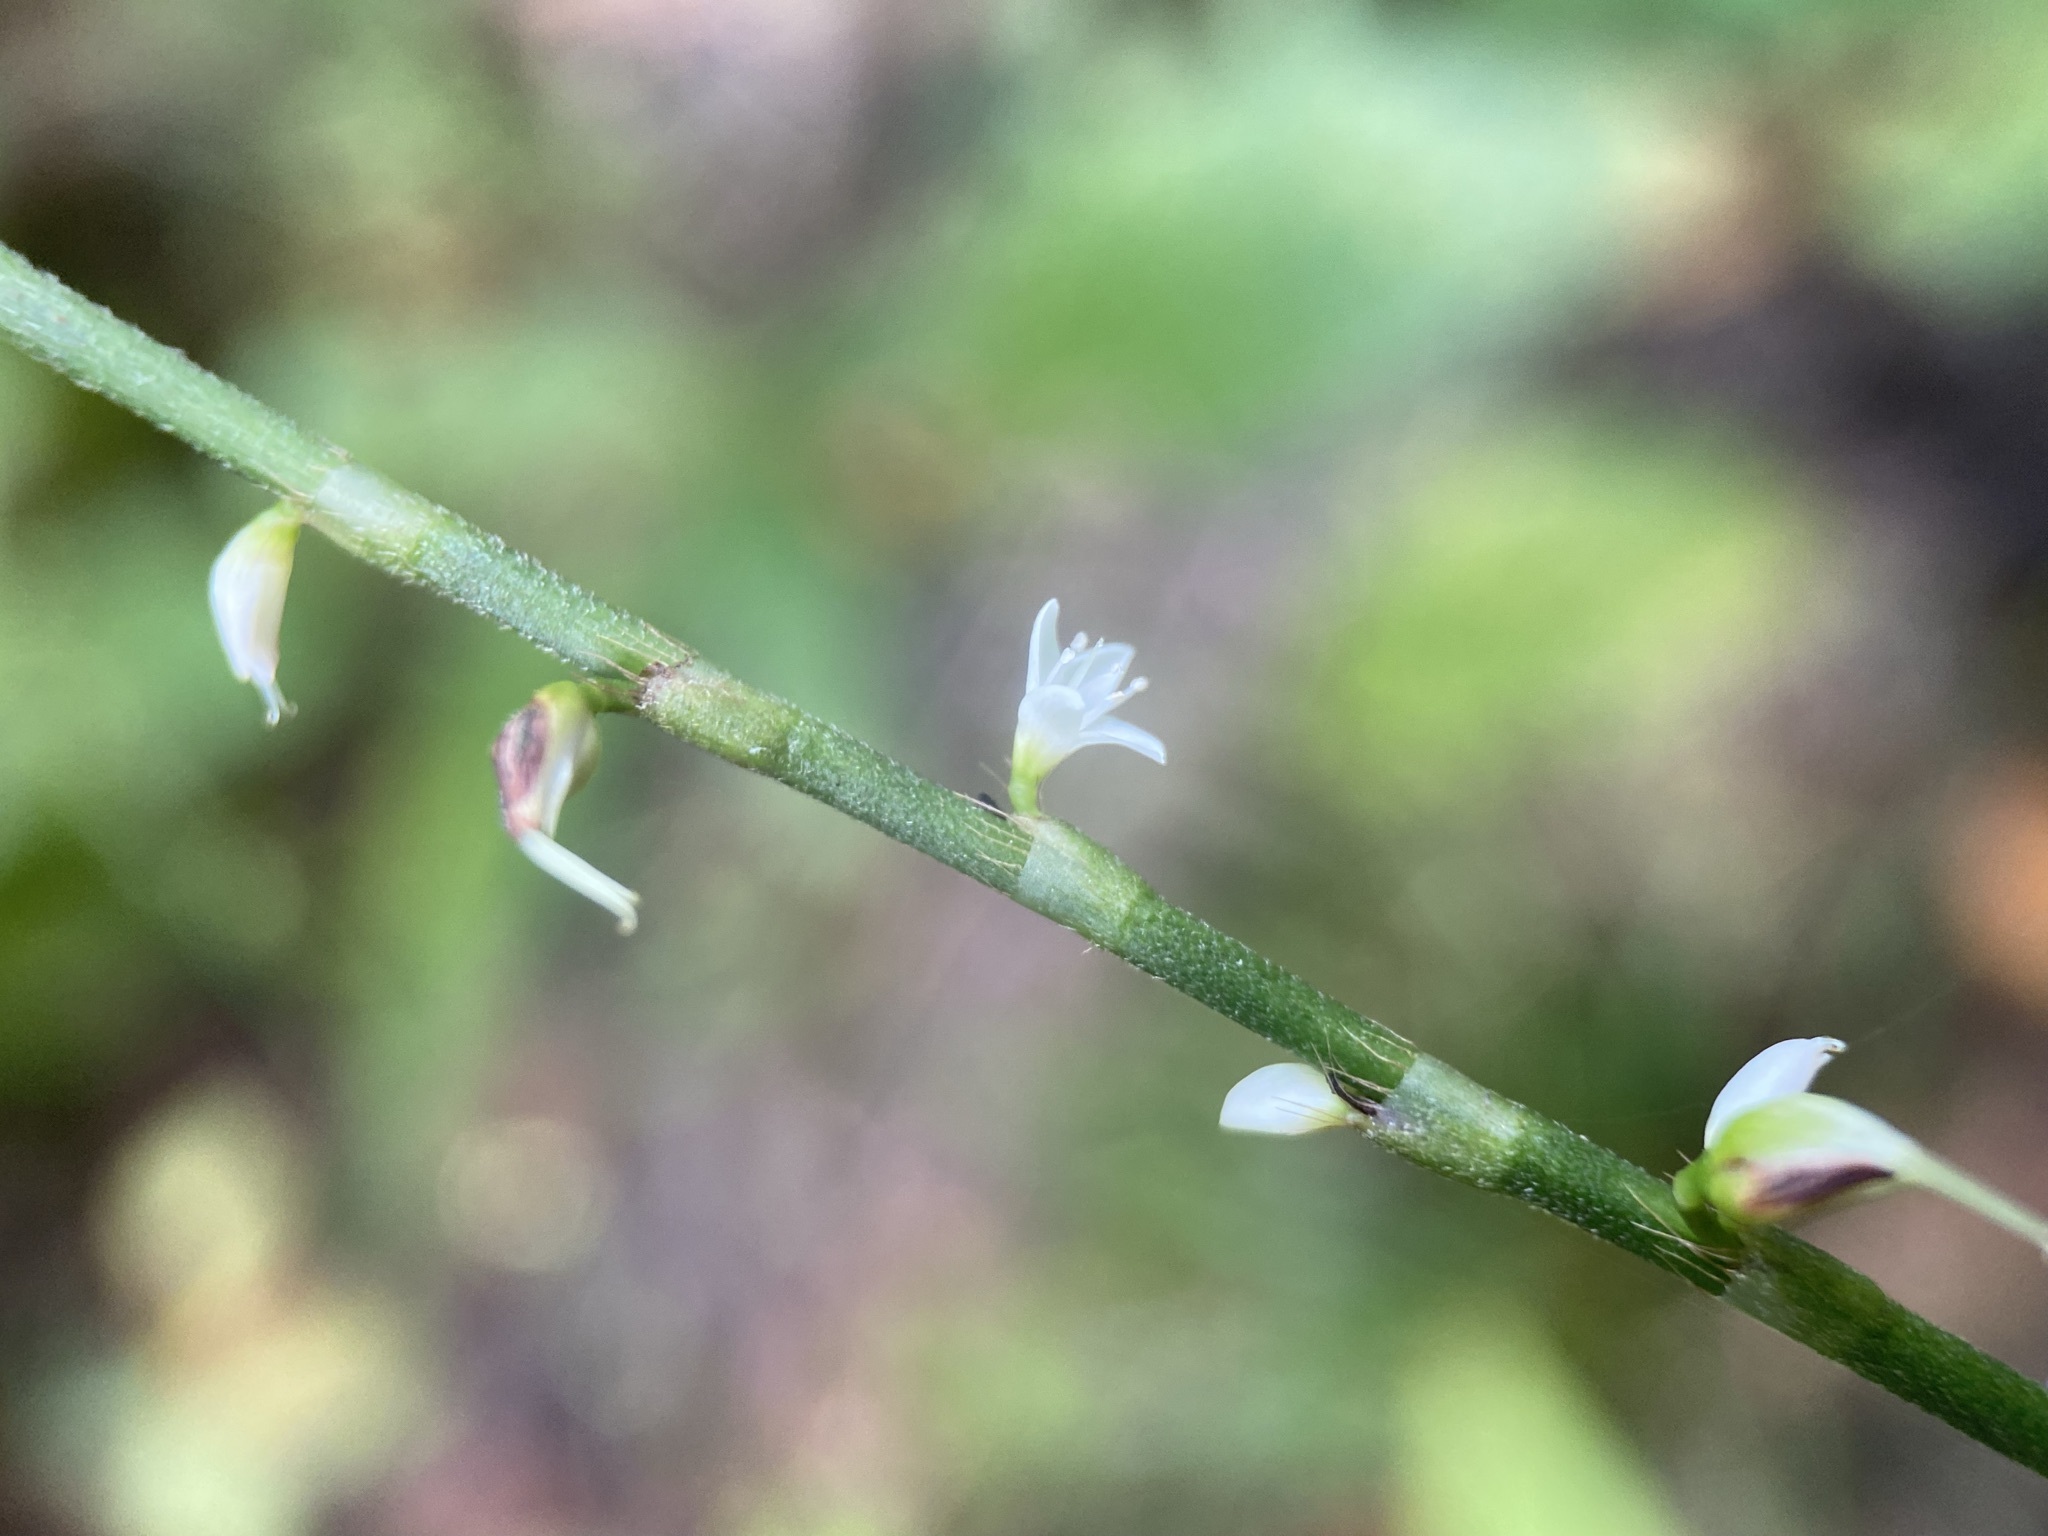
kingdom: Plantae
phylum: Tracheophyta
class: Magnoliopsida
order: Caryophyllales
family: Polygonaceae
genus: Persicaria
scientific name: Persicaria virginiana
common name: Jumpseed
